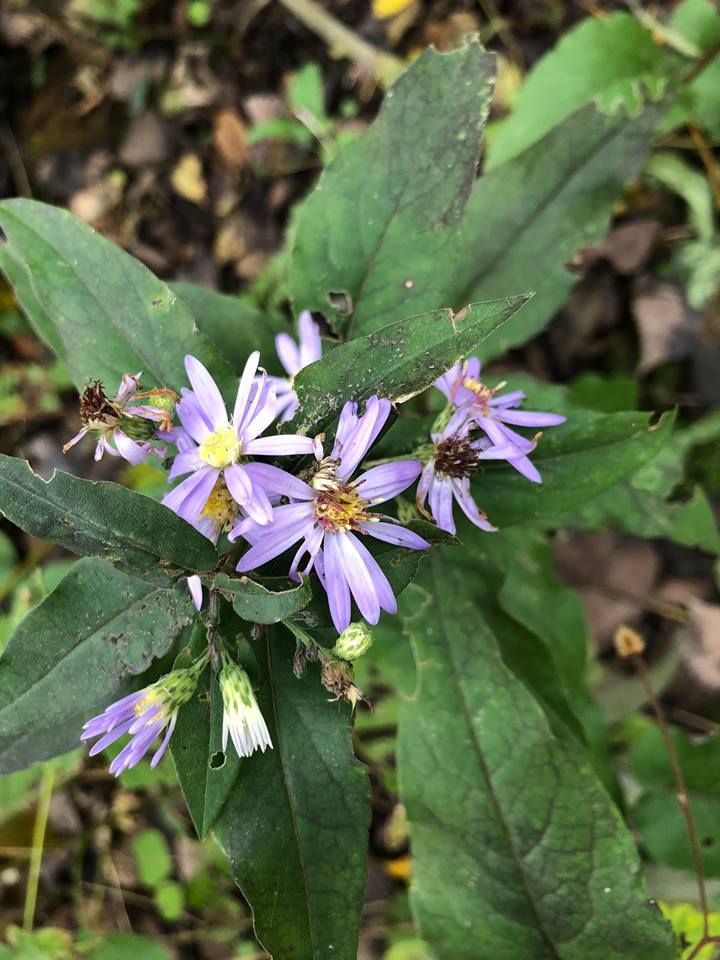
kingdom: Plantae
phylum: Tracheophyta
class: Magnoliopsida
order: Asterales
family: Asteraceae
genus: Symphyotrichum
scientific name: Symphyotrichum shortii
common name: Short's aster
